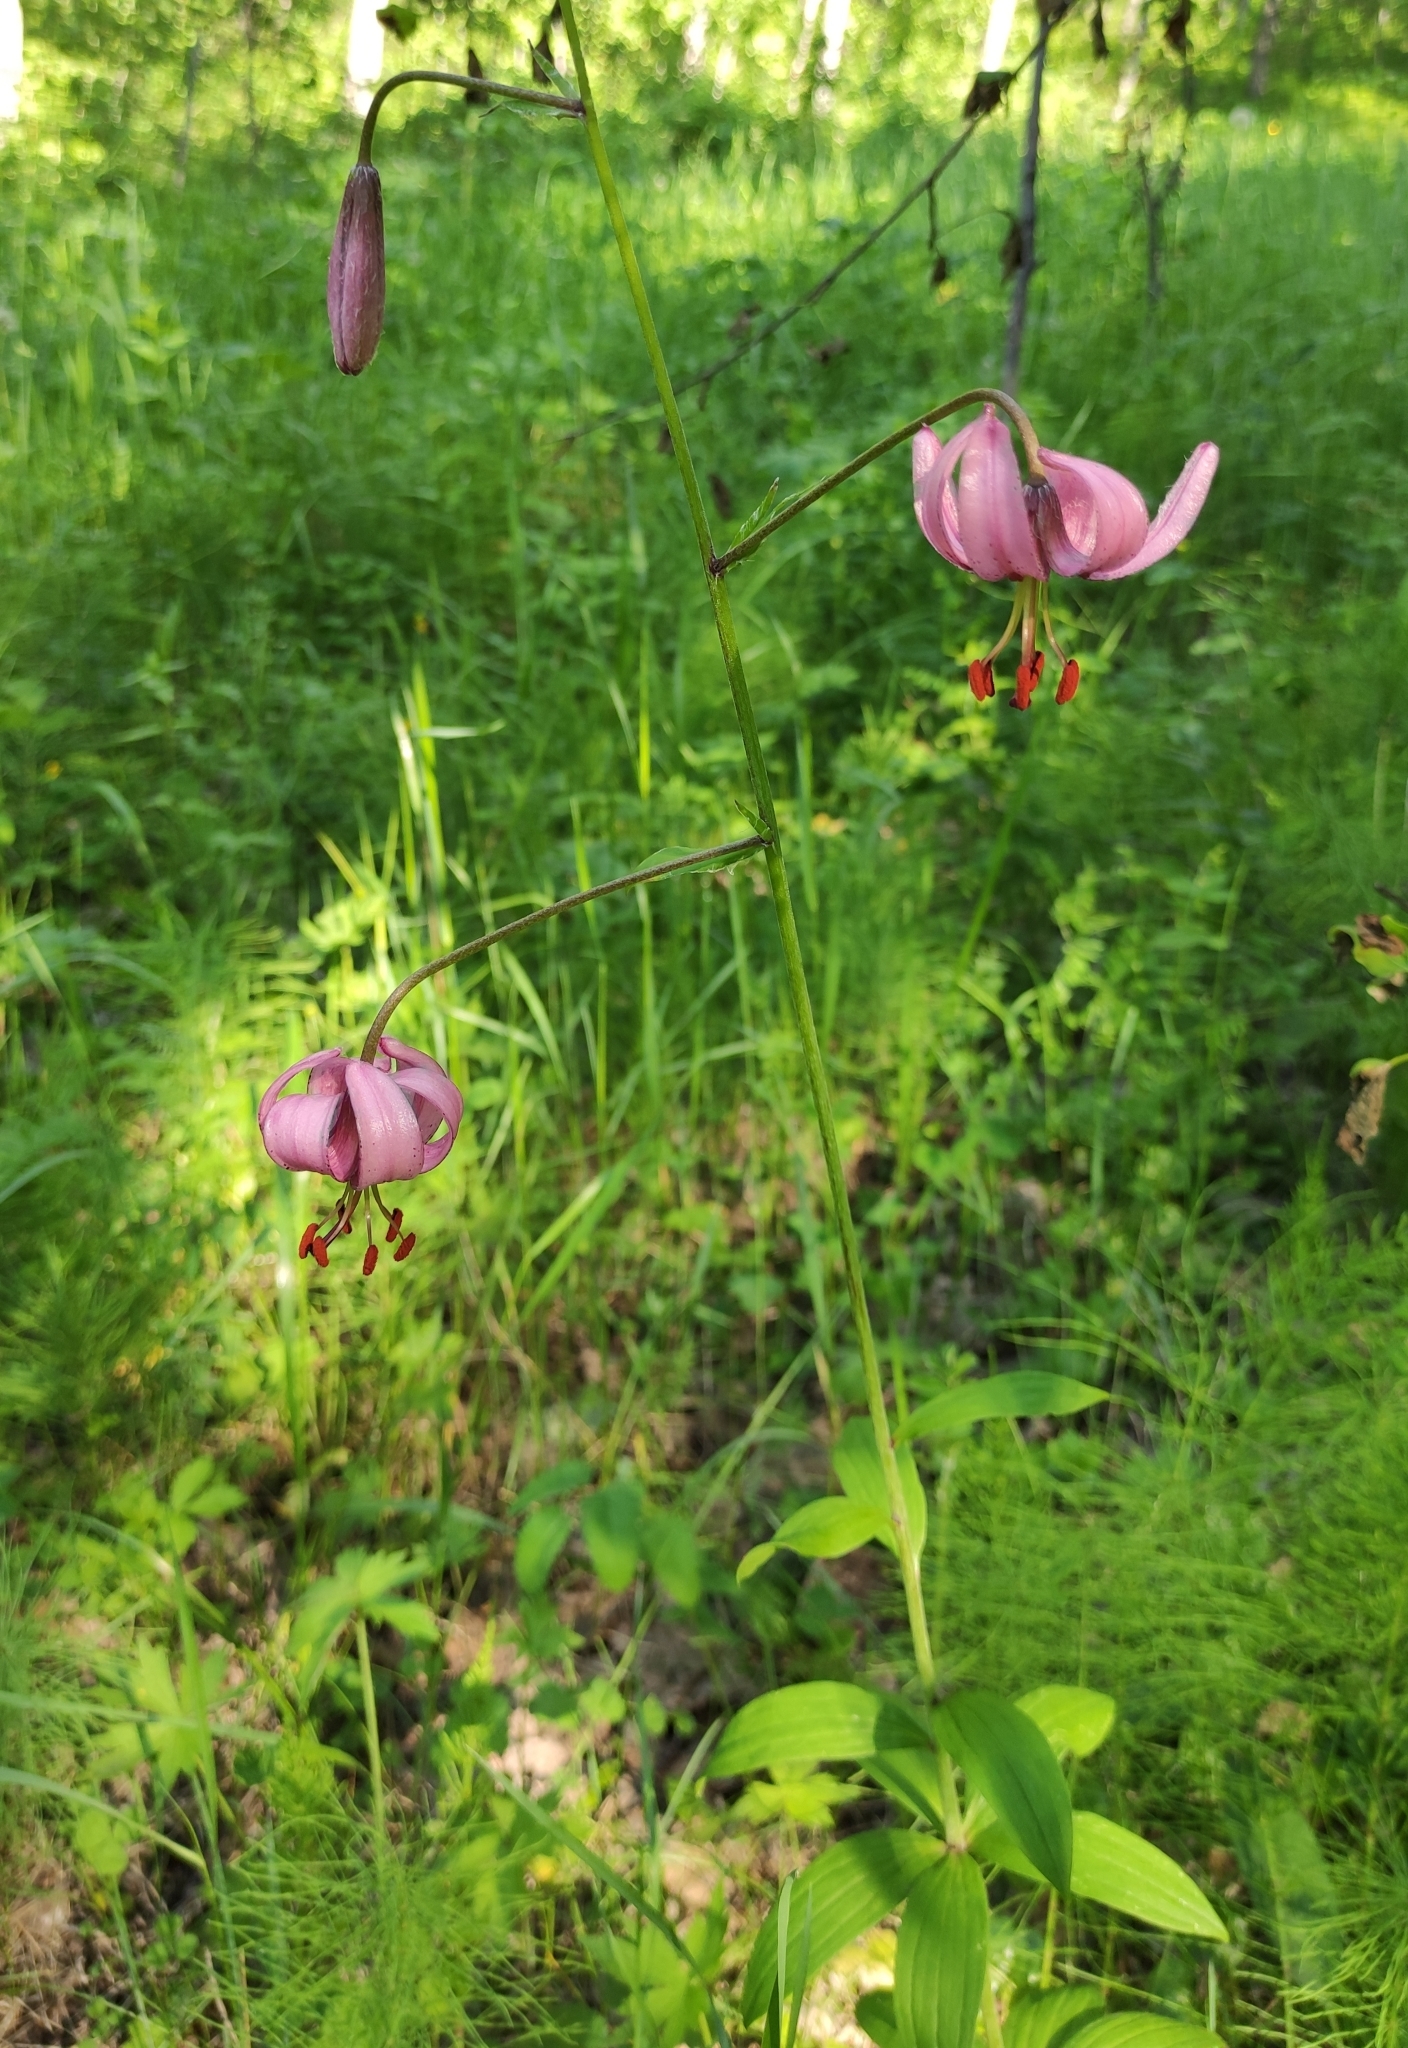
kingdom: Plantae
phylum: Tracheophyta
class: Liliopsida
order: Liliales
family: Liliaceae
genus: Lilium
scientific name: Lilium martagon
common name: Martagon lily
